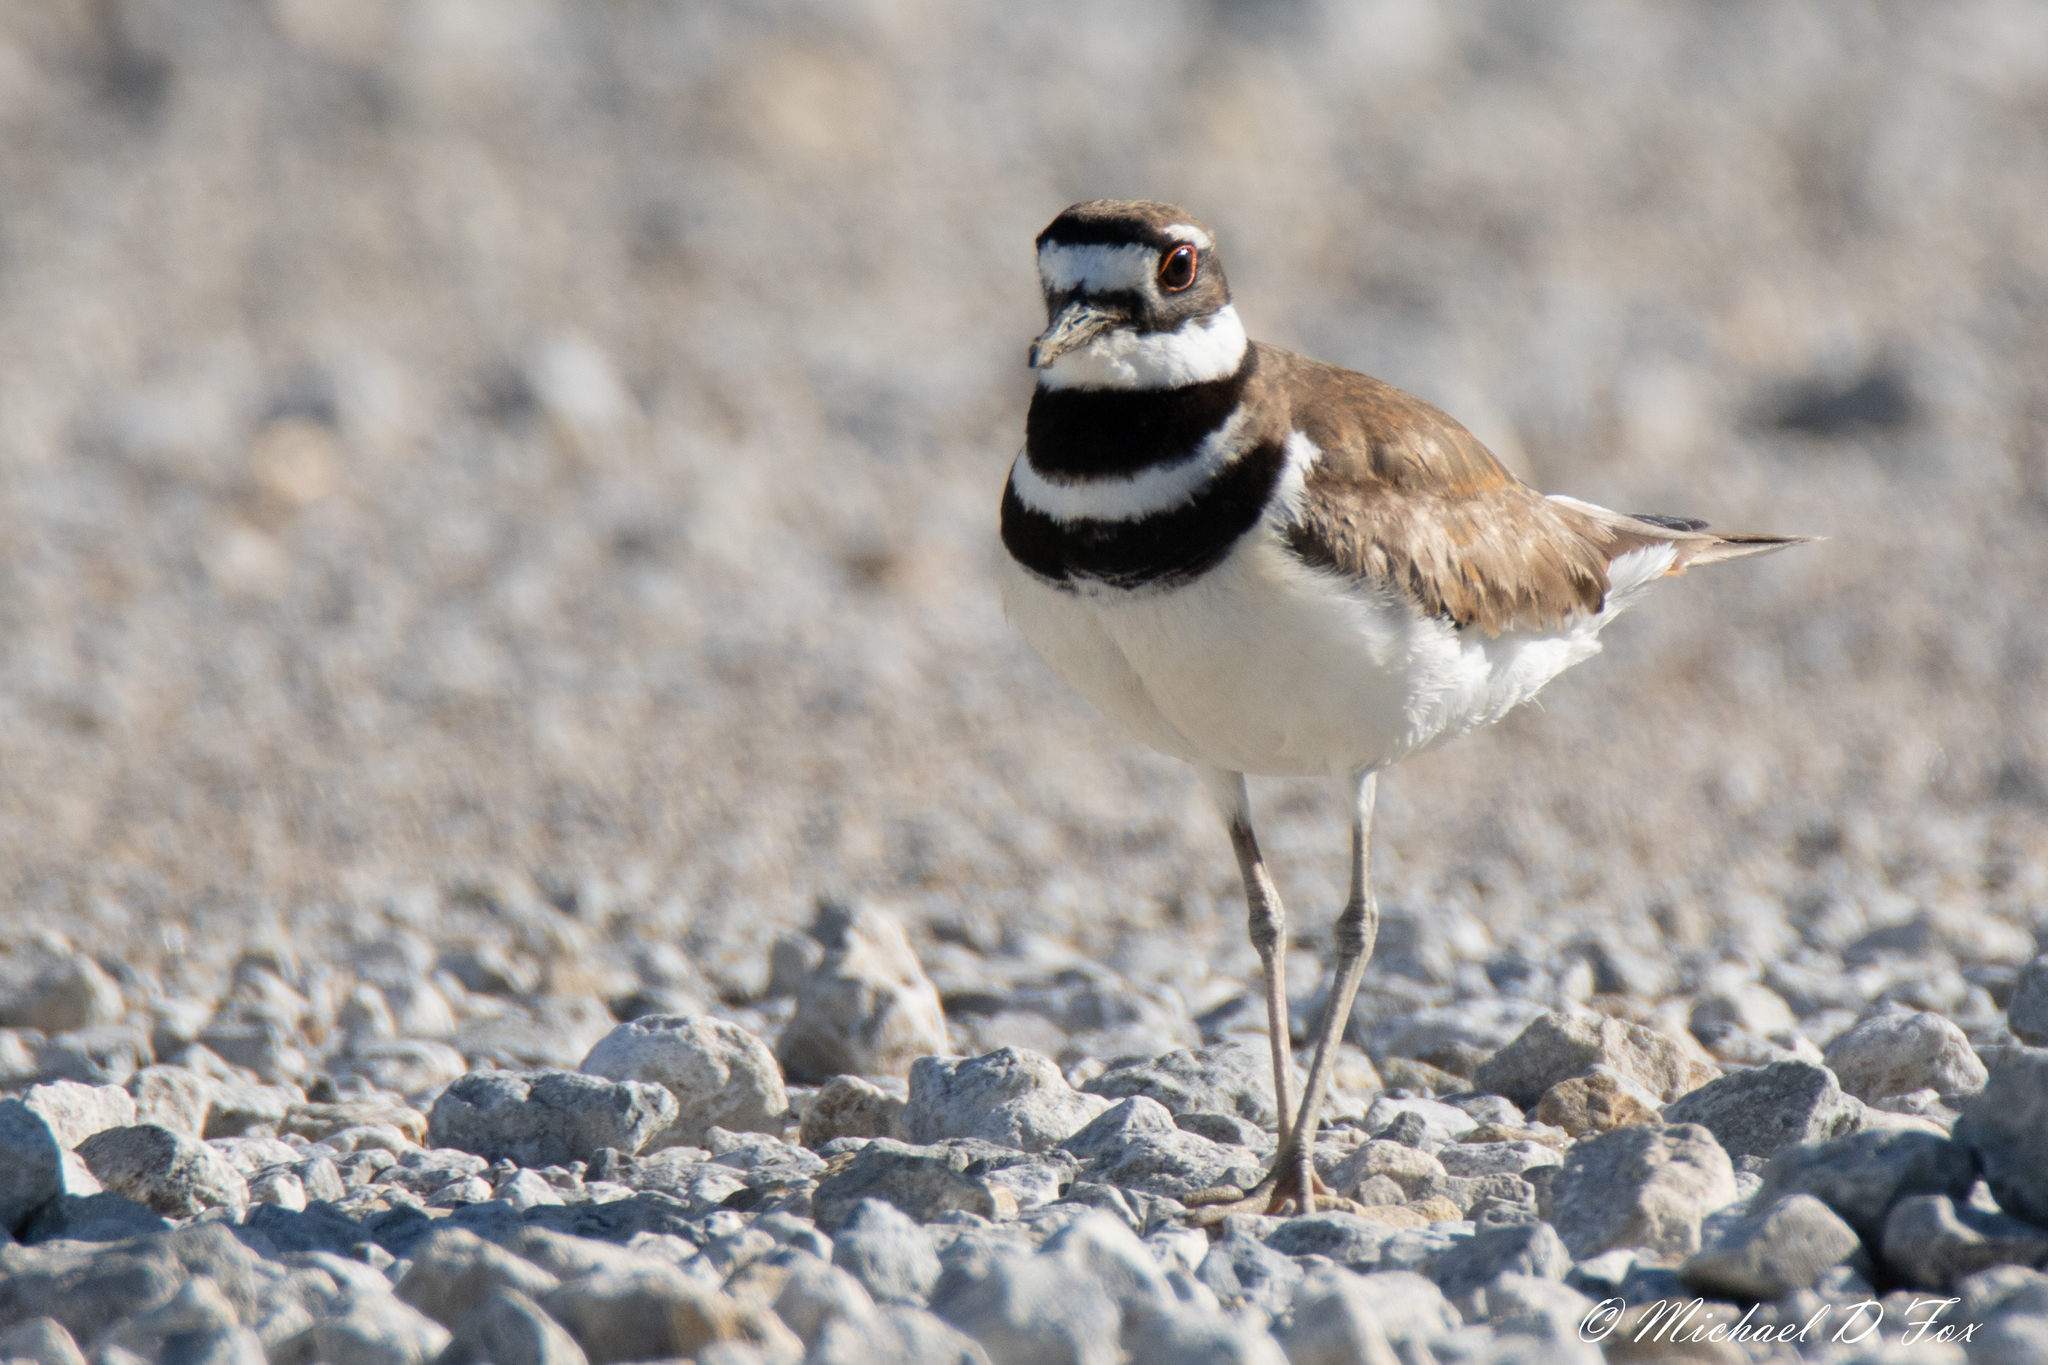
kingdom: Animalia
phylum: Chordata
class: Aves
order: Charadriiformes
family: Charadriidae
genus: Charadrius
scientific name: Charadrius vociferus
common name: Killdeer
